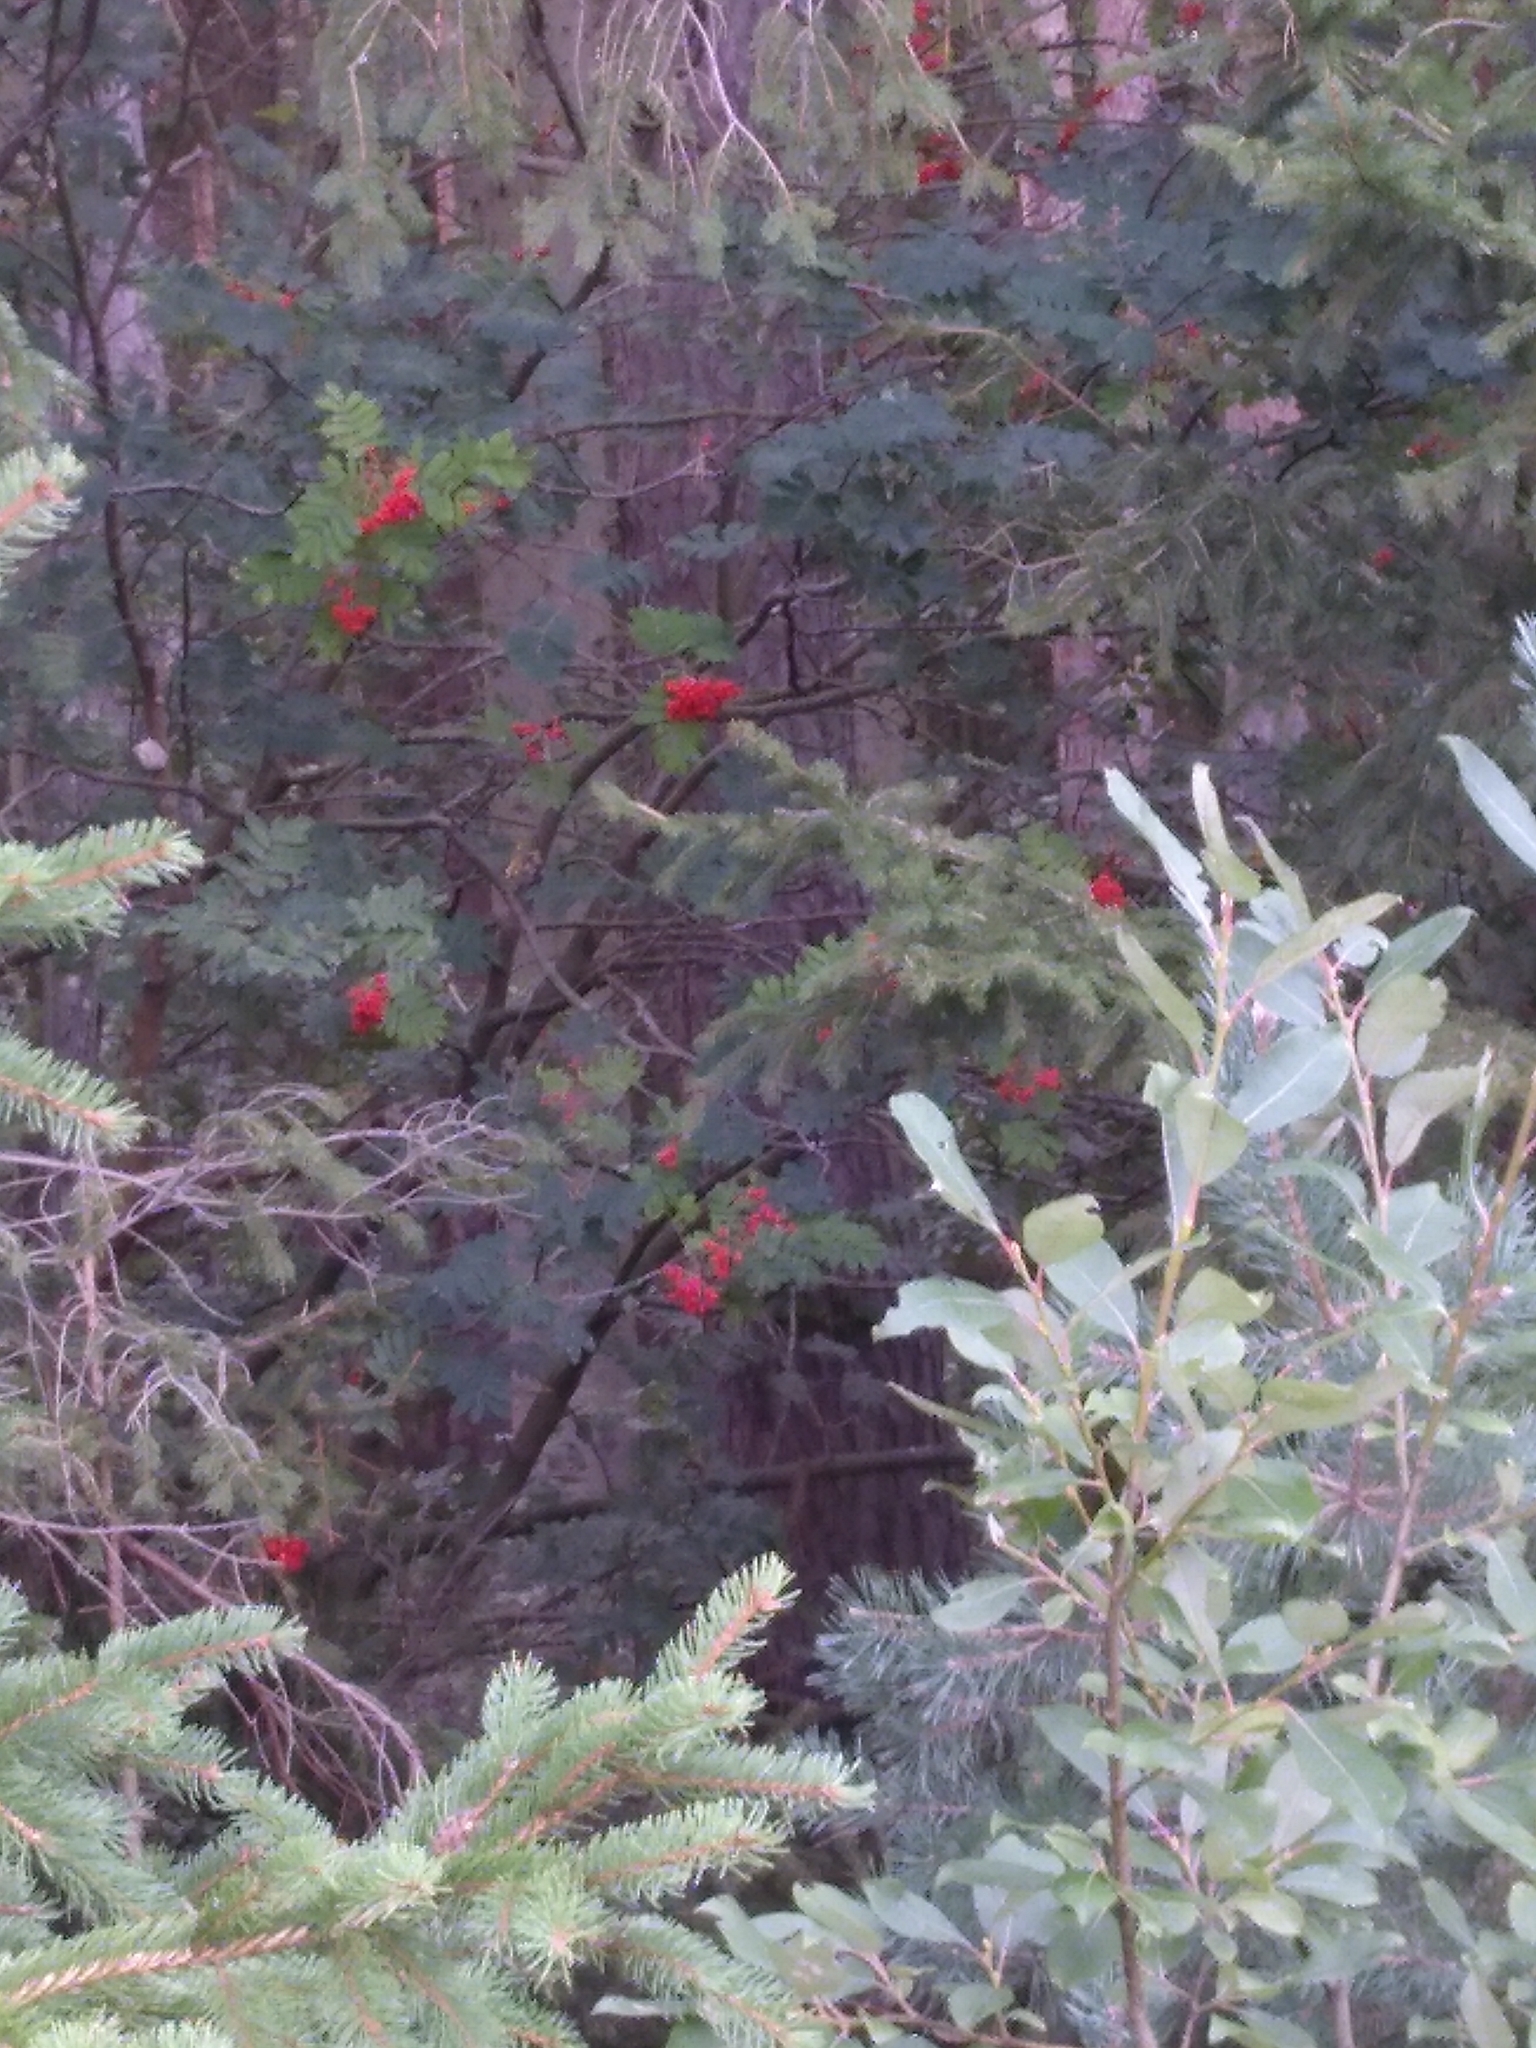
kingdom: Plantae
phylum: Tracheophyta
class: Magnoliopsida
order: Rosales
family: Rosaceae
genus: Sorbus
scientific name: Sorbus aucuparia
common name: Rowan
